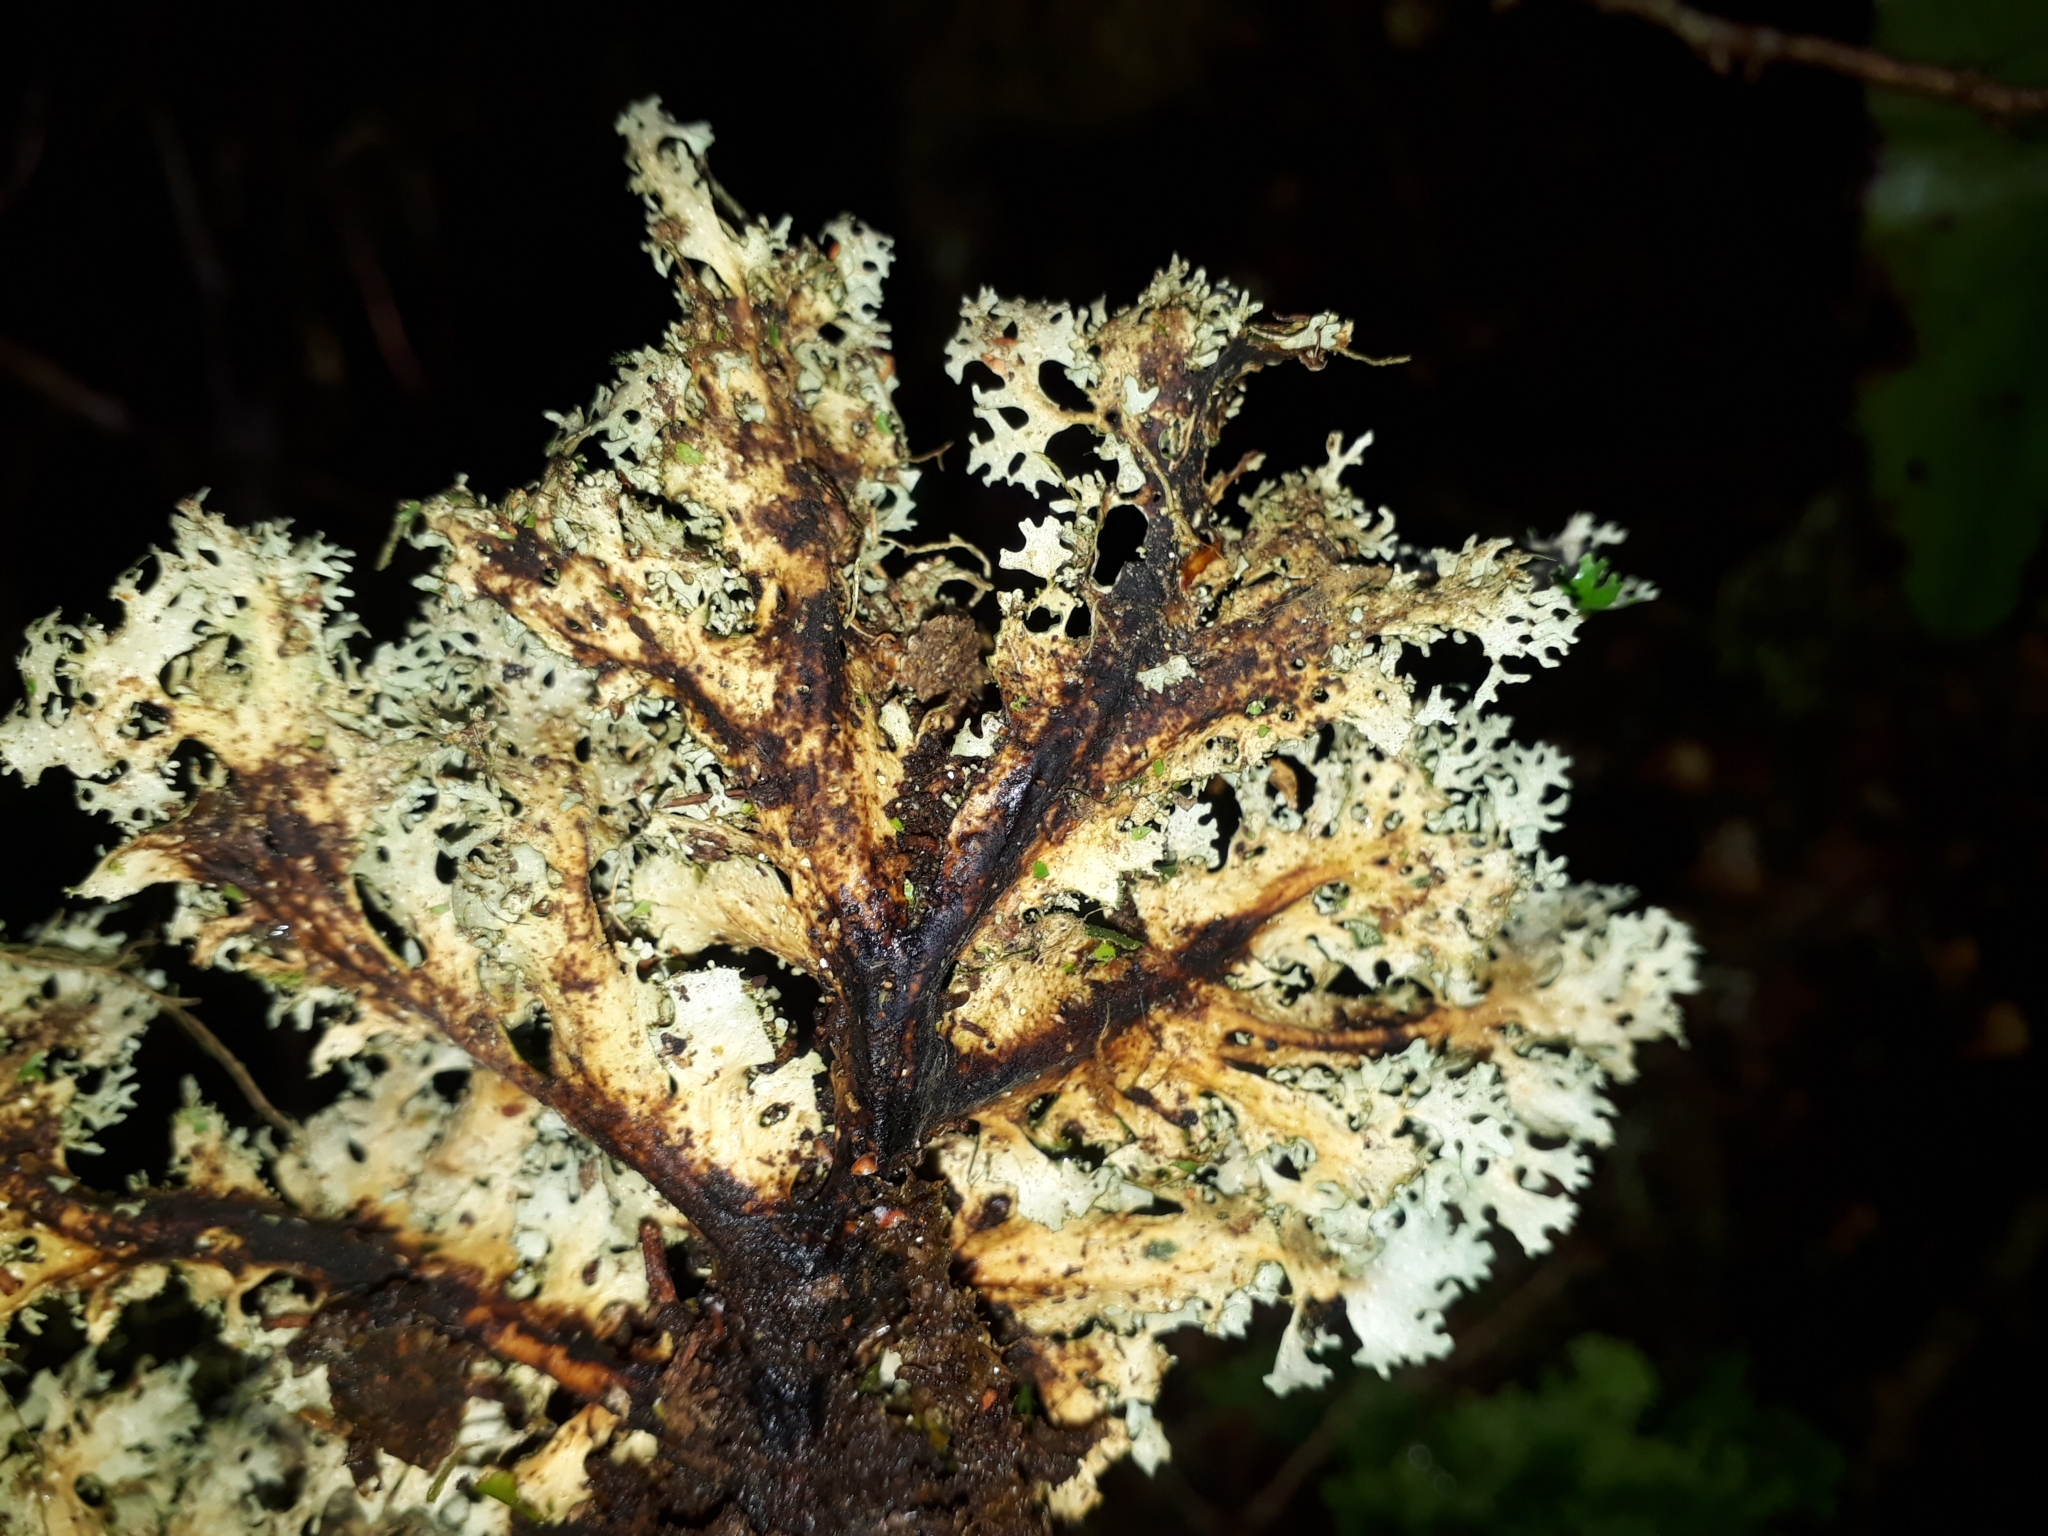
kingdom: Fungi
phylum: Ascomycota
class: Lecanoromycetes
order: Peltigerales
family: Lobariaceae
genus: Sticta
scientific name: Sticta filix
